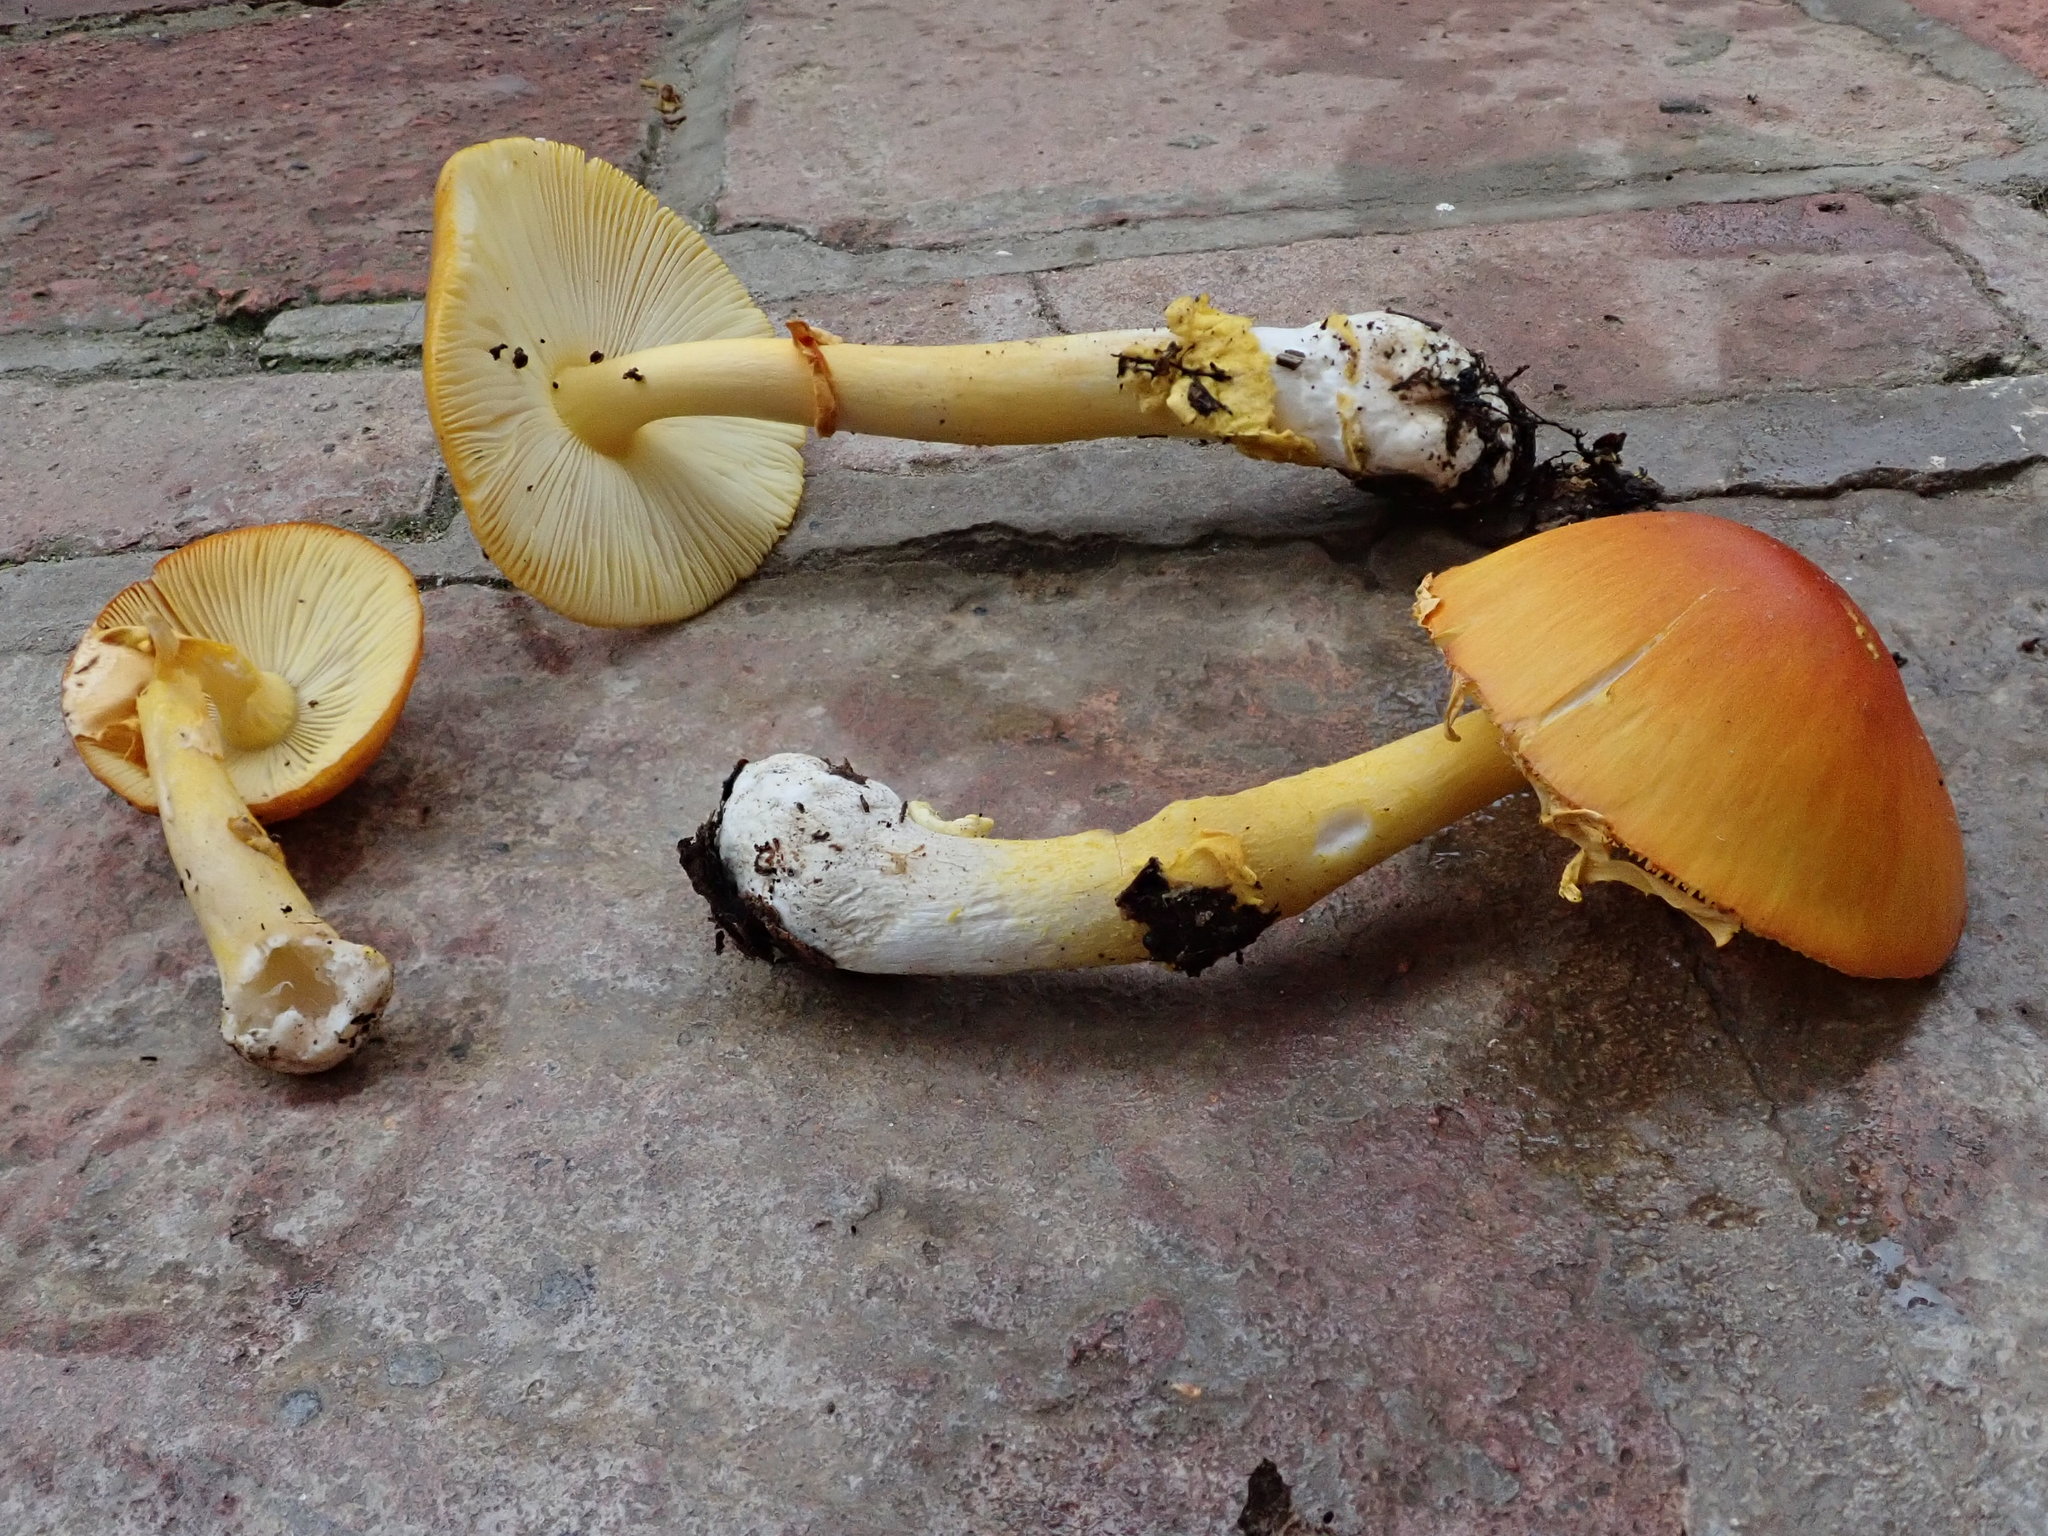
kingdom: Fungi
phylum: Basidiomycota
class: Agaricomycetes
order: Agaricales
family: Amanitaceae
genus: Amanita
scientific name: Amanita flavoconia
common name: Yellow patches
